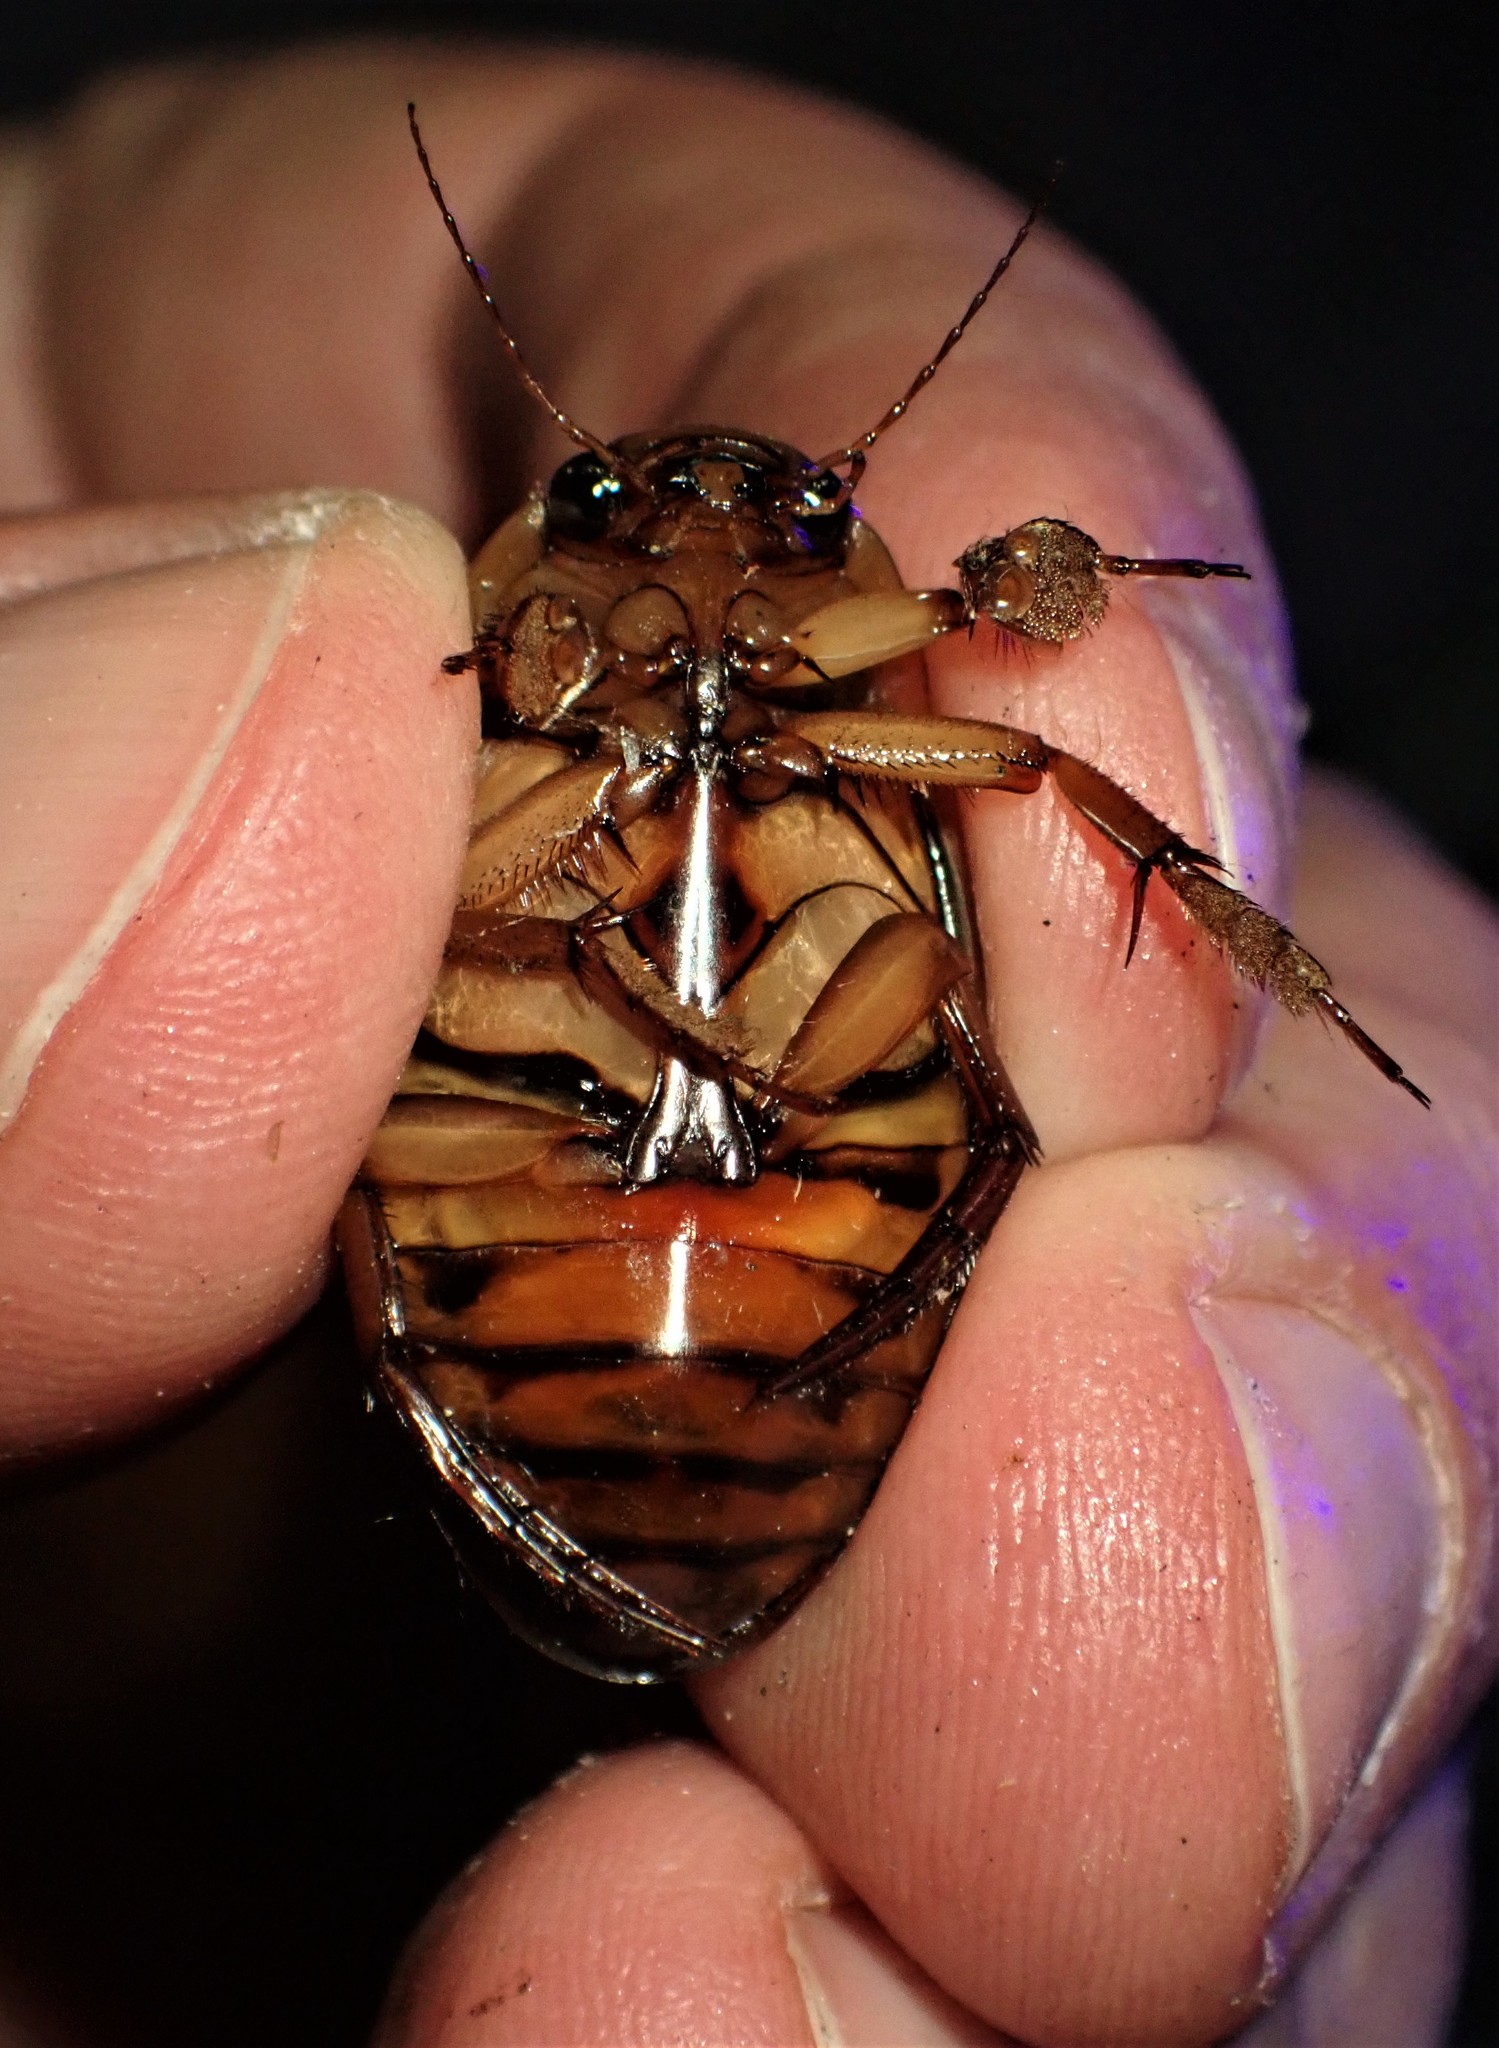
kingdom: Animalia
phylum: Arthropoda
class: Insecta
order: Coleoptera
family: Dytiscidae
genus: Dytiscus
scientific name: Dytiscus fasciventris
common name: Understriped diving beetle
